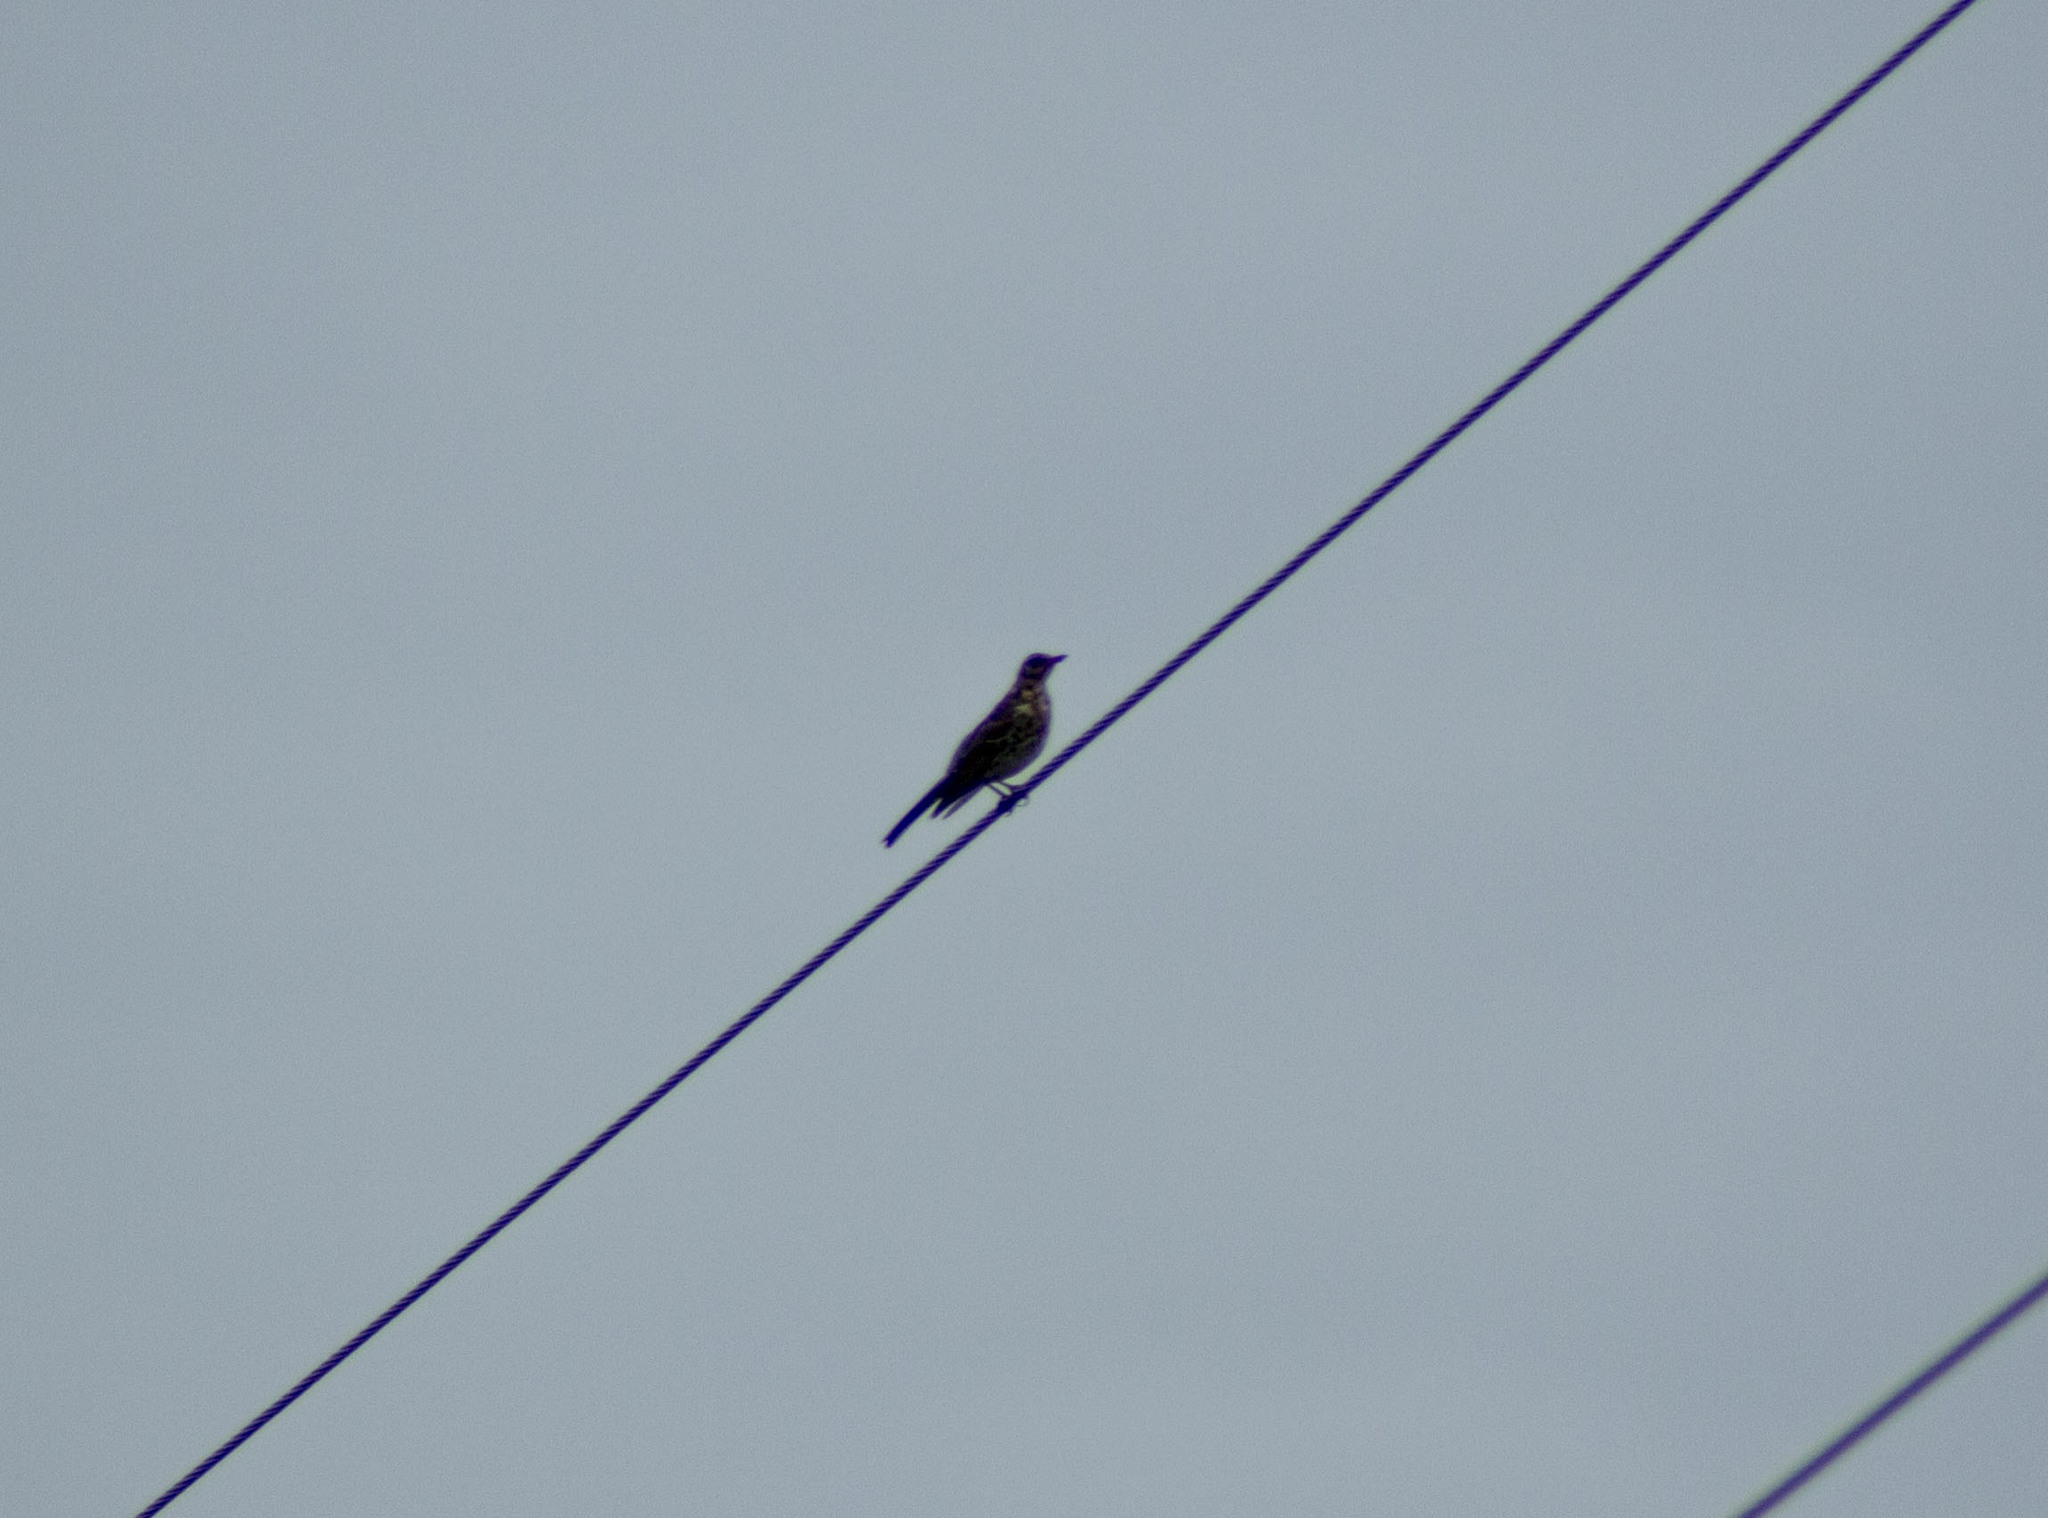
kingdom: Animalia
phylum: Chordata
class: Aves
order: Passeriformes
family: Turdidae
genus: Turdus
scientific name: Turdus pilaris
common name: Fieldfare
